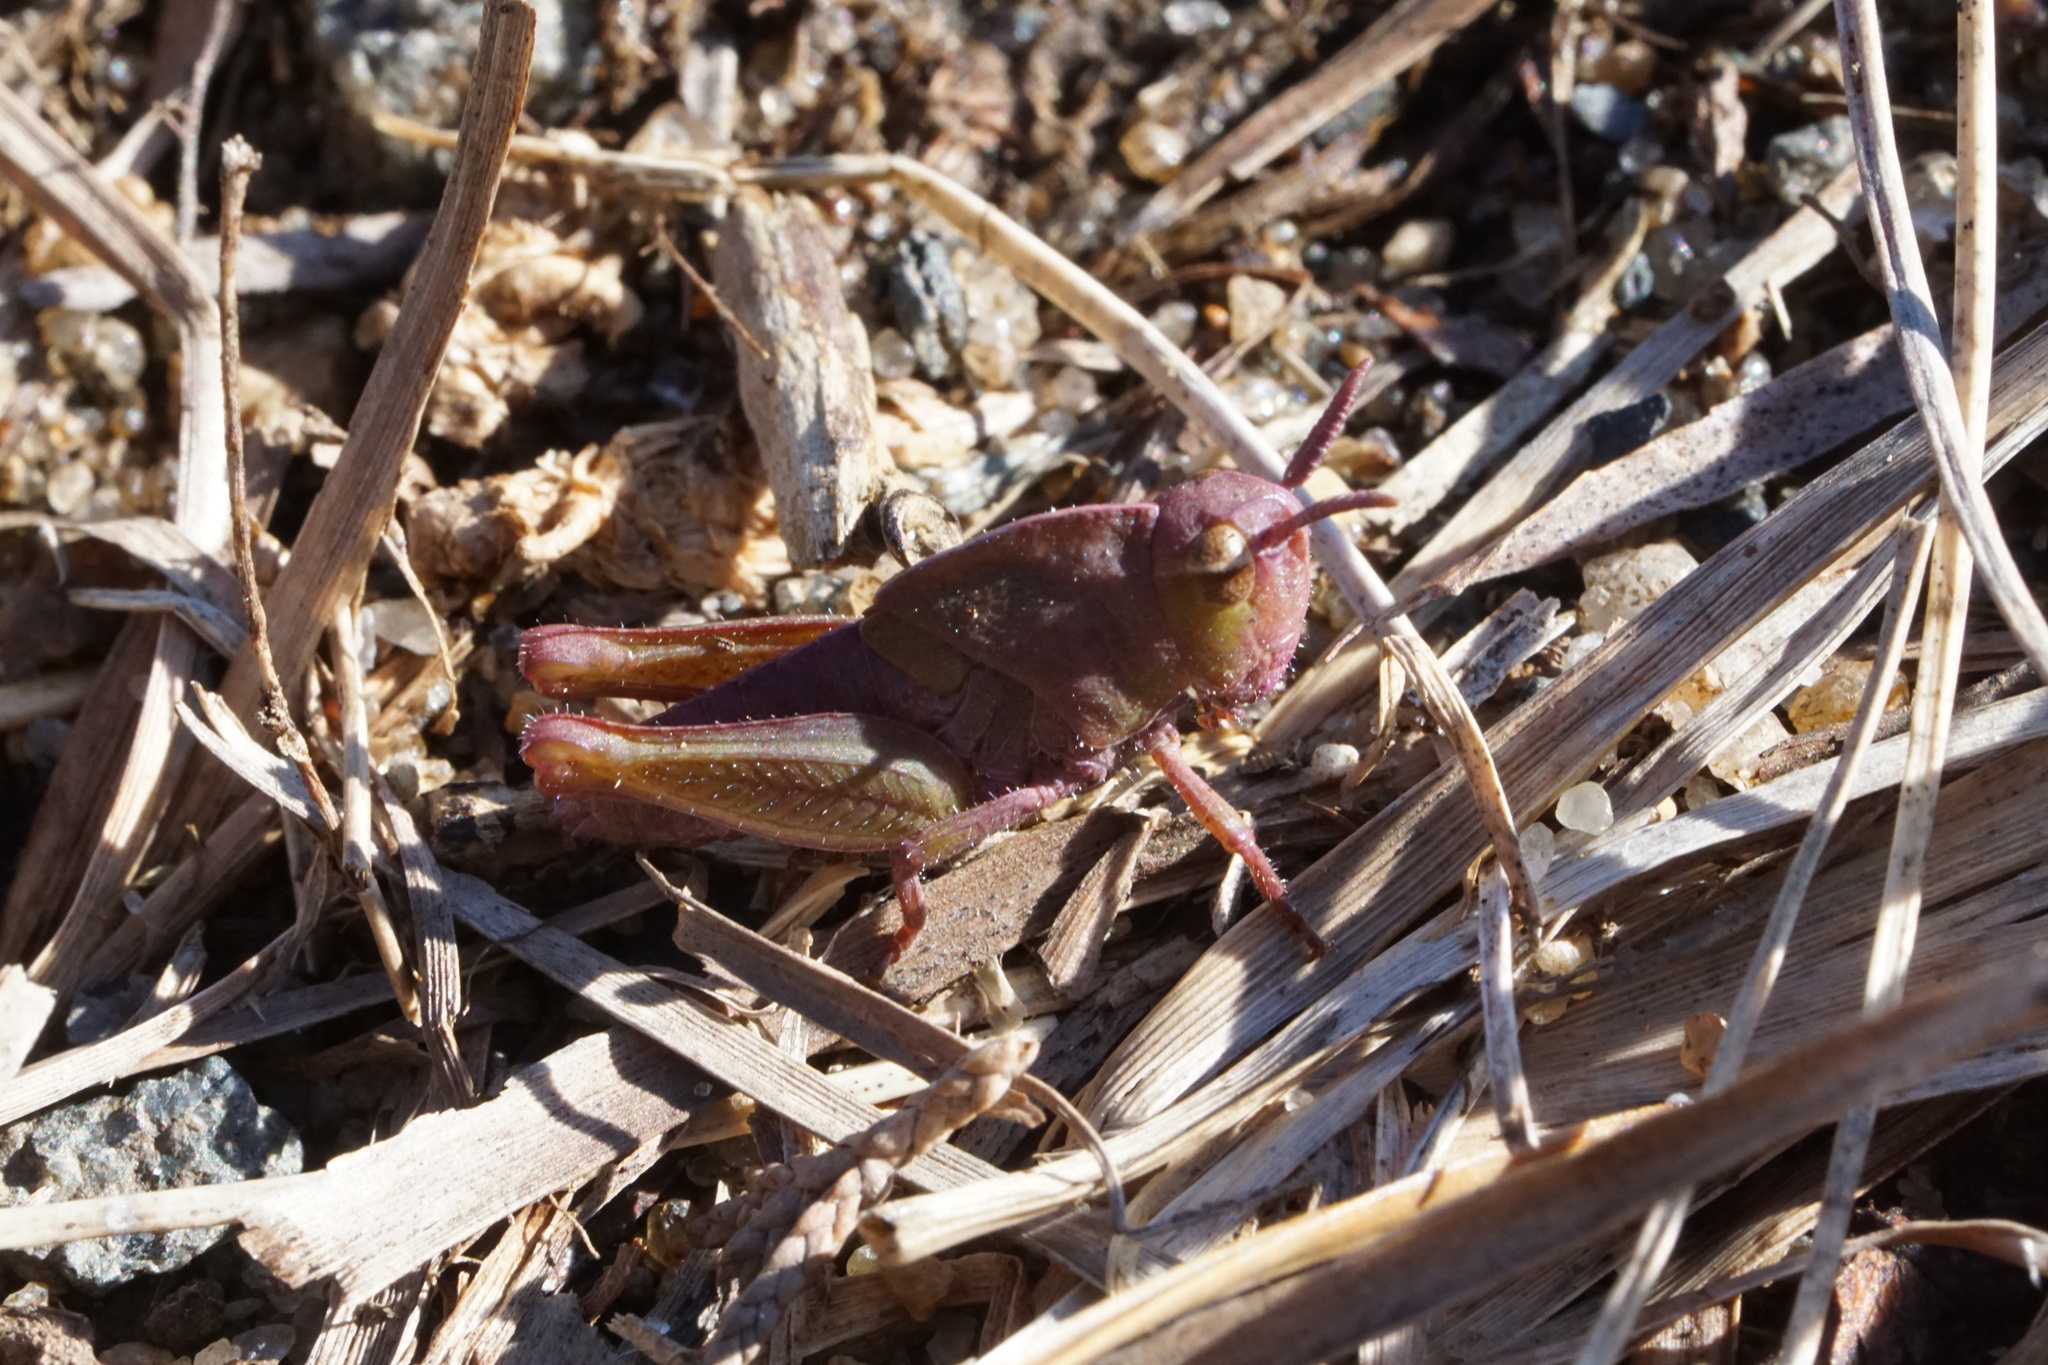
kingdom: Animalia
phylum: Arthropoda
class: Insecta
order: Orthoptera
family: Acrididae
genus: Chortophaga
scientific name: Chortophaga viridifasciata
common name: Green-striped grasshopper
